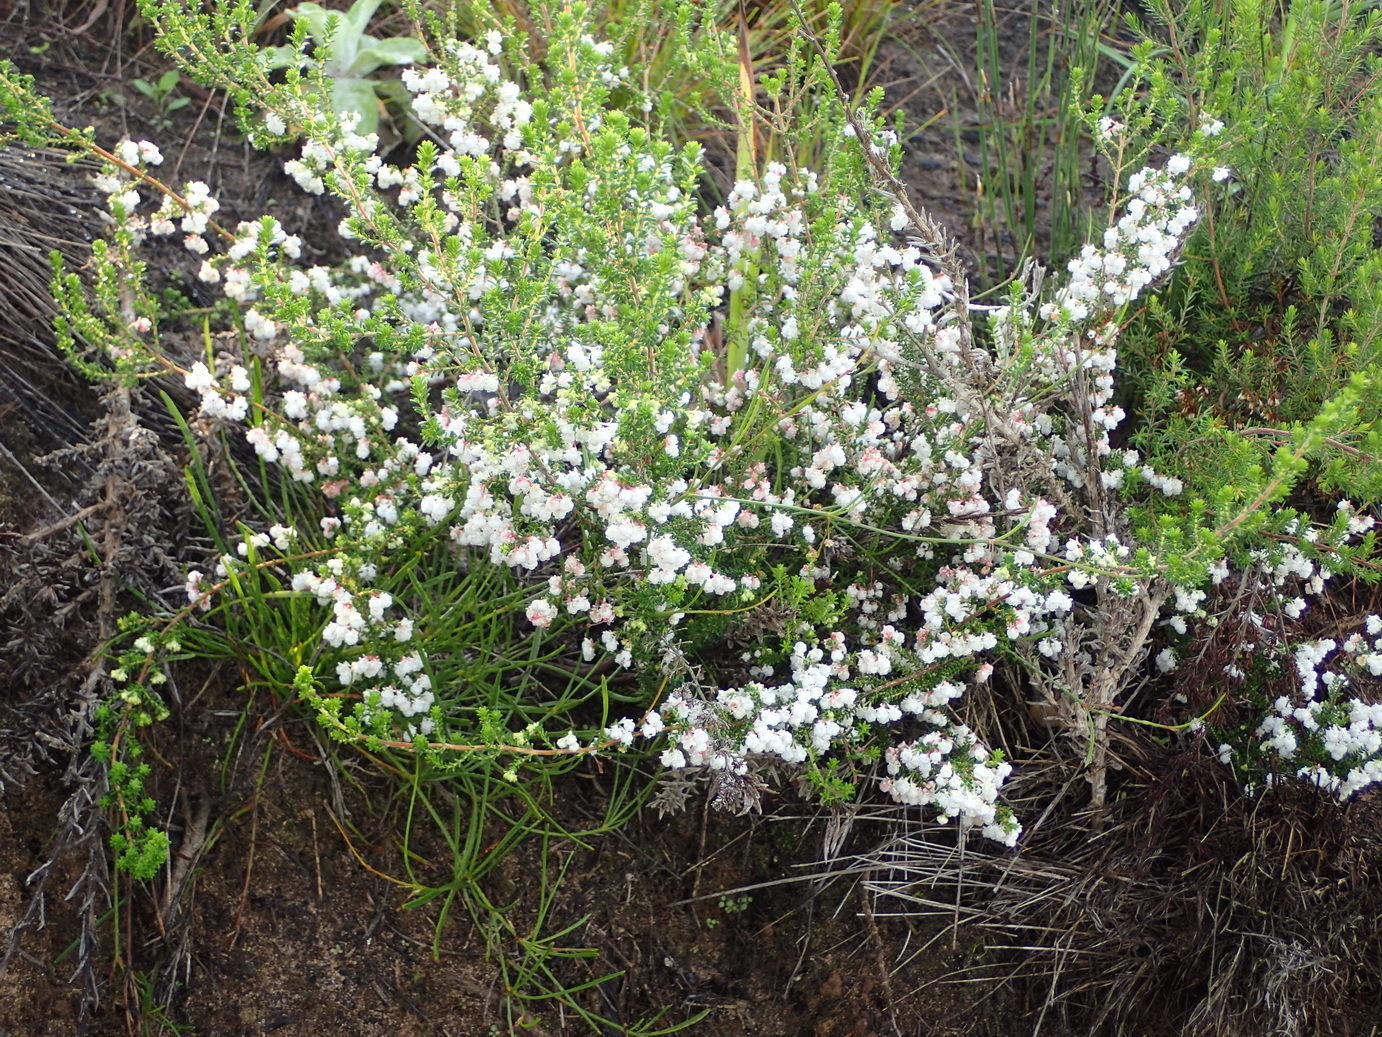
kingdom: Plantae
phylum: Tracheophyta
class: Magnoliopsida
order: Ericales
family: Ericaceae
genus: Erica
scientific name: Erica formosa
